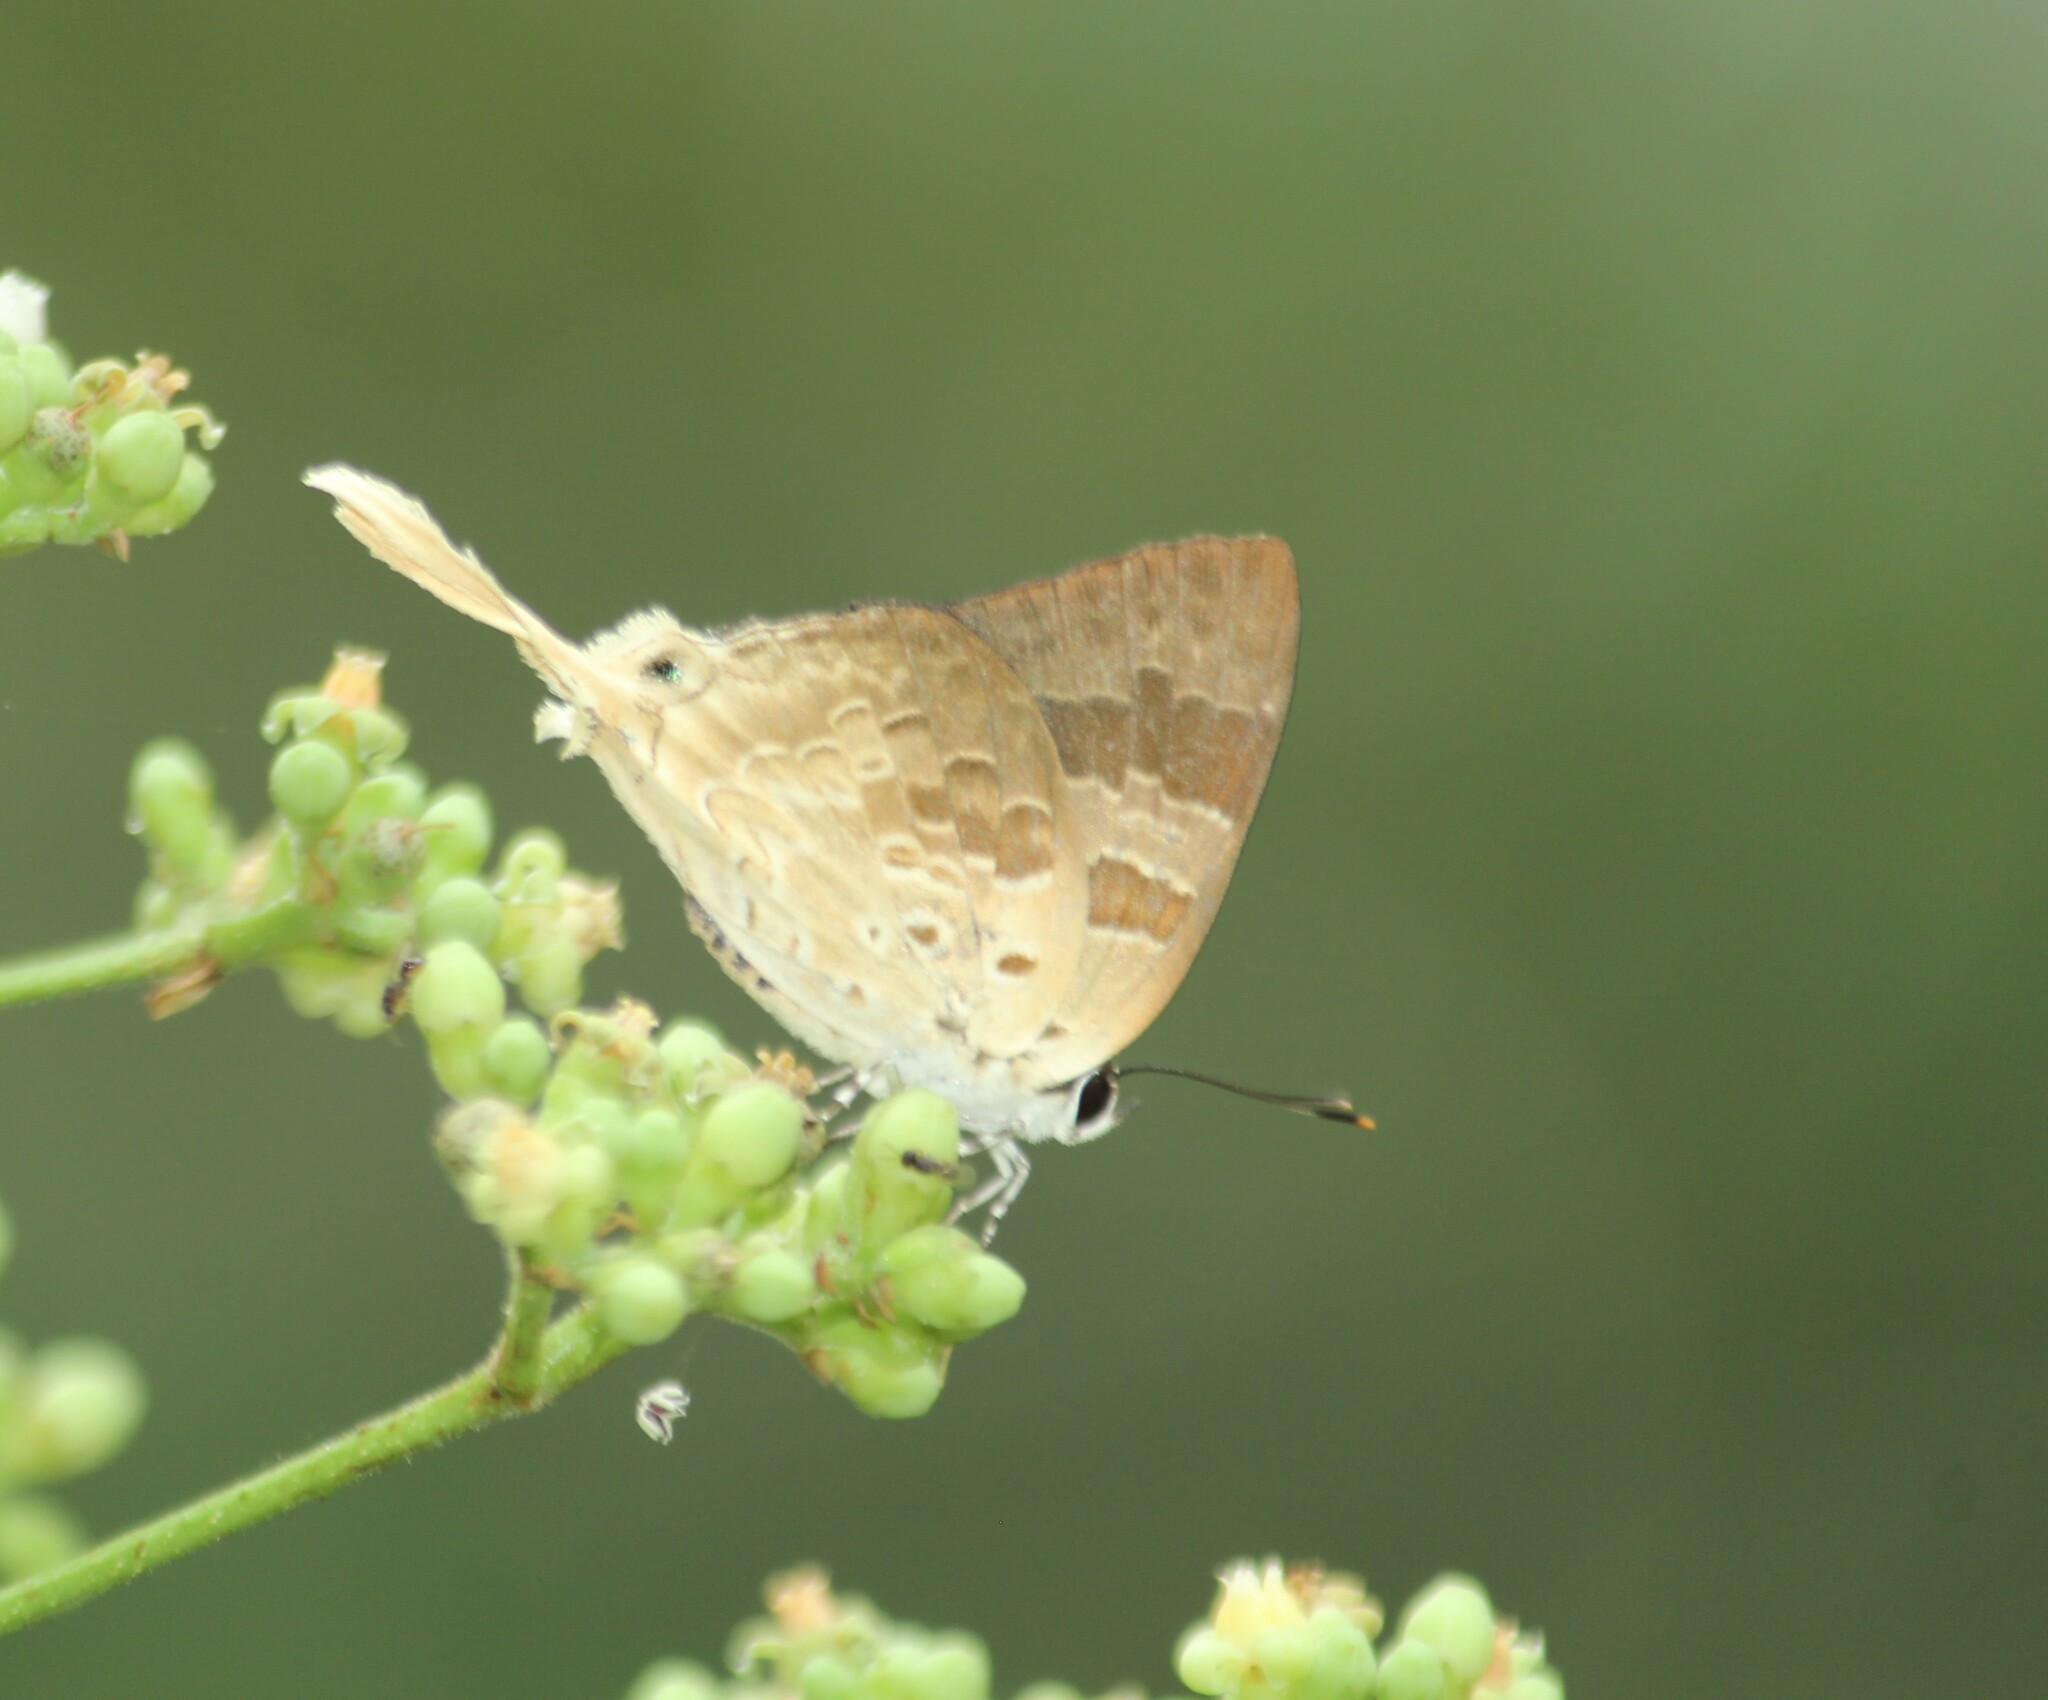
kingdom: Animalia
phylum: Arthropoda
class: Insecta
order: Lepidoptera
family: Lycaenidae
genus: Bindahara
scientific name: Bindahara phocides
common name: Sword-tailed flash
